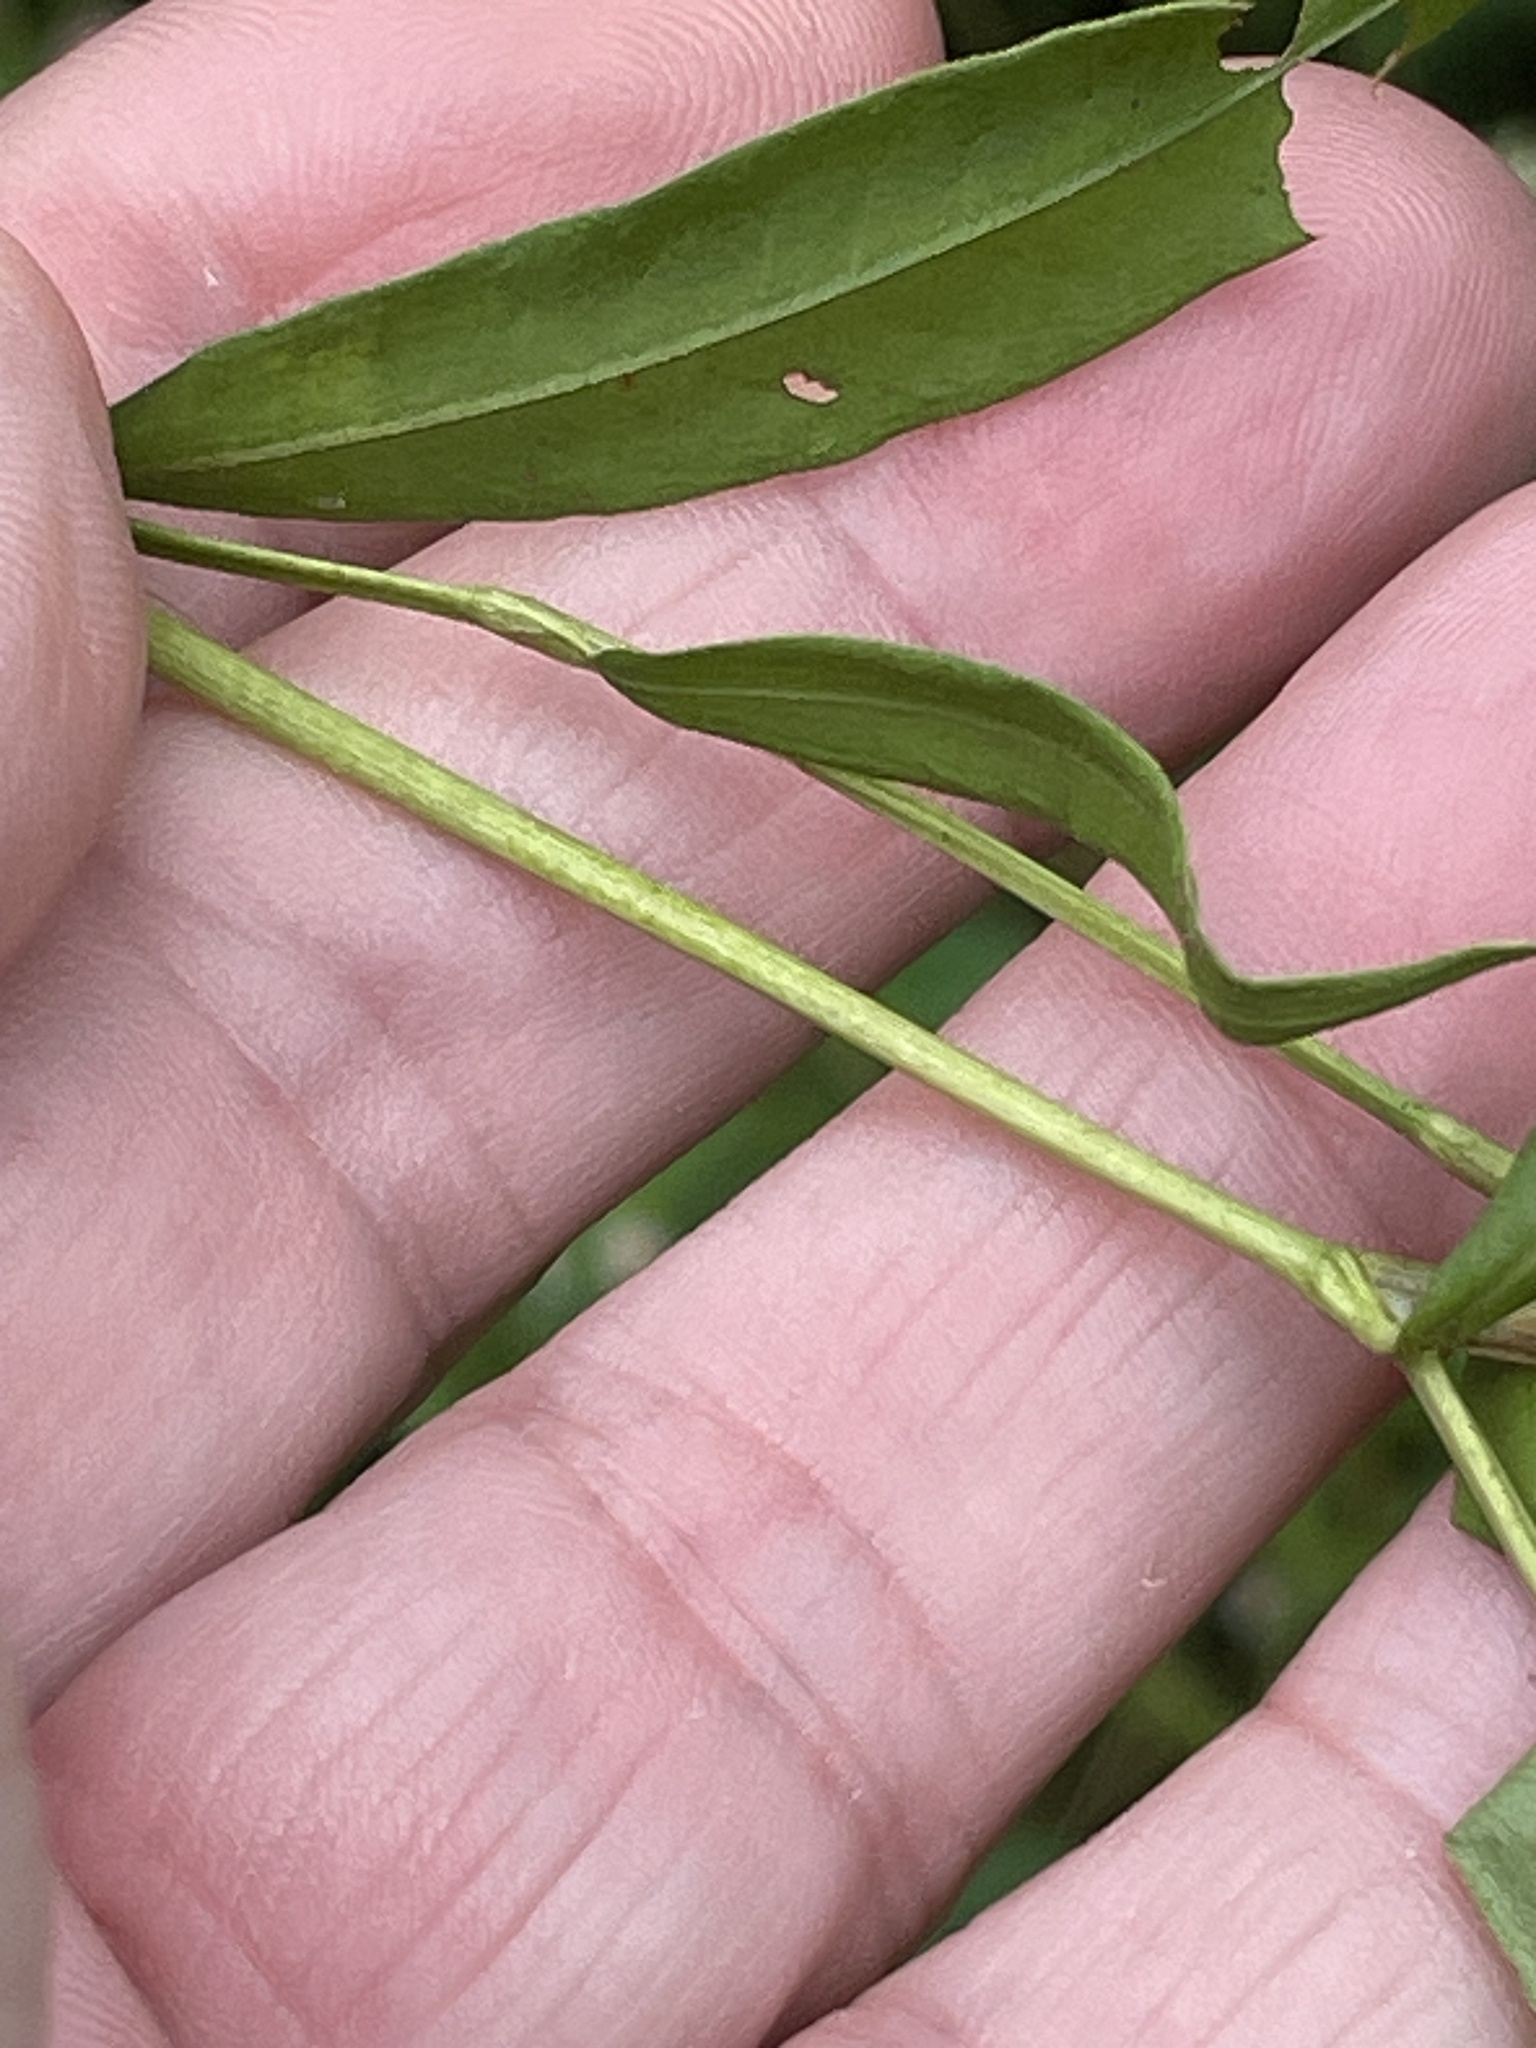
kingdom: Plantae
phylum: Tracheophyta
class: Magnoliopsida
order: Caryophyllales
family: Polygonaceae
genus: Persicaria
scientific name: Persicaria punctata
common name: Dotted smartweed
